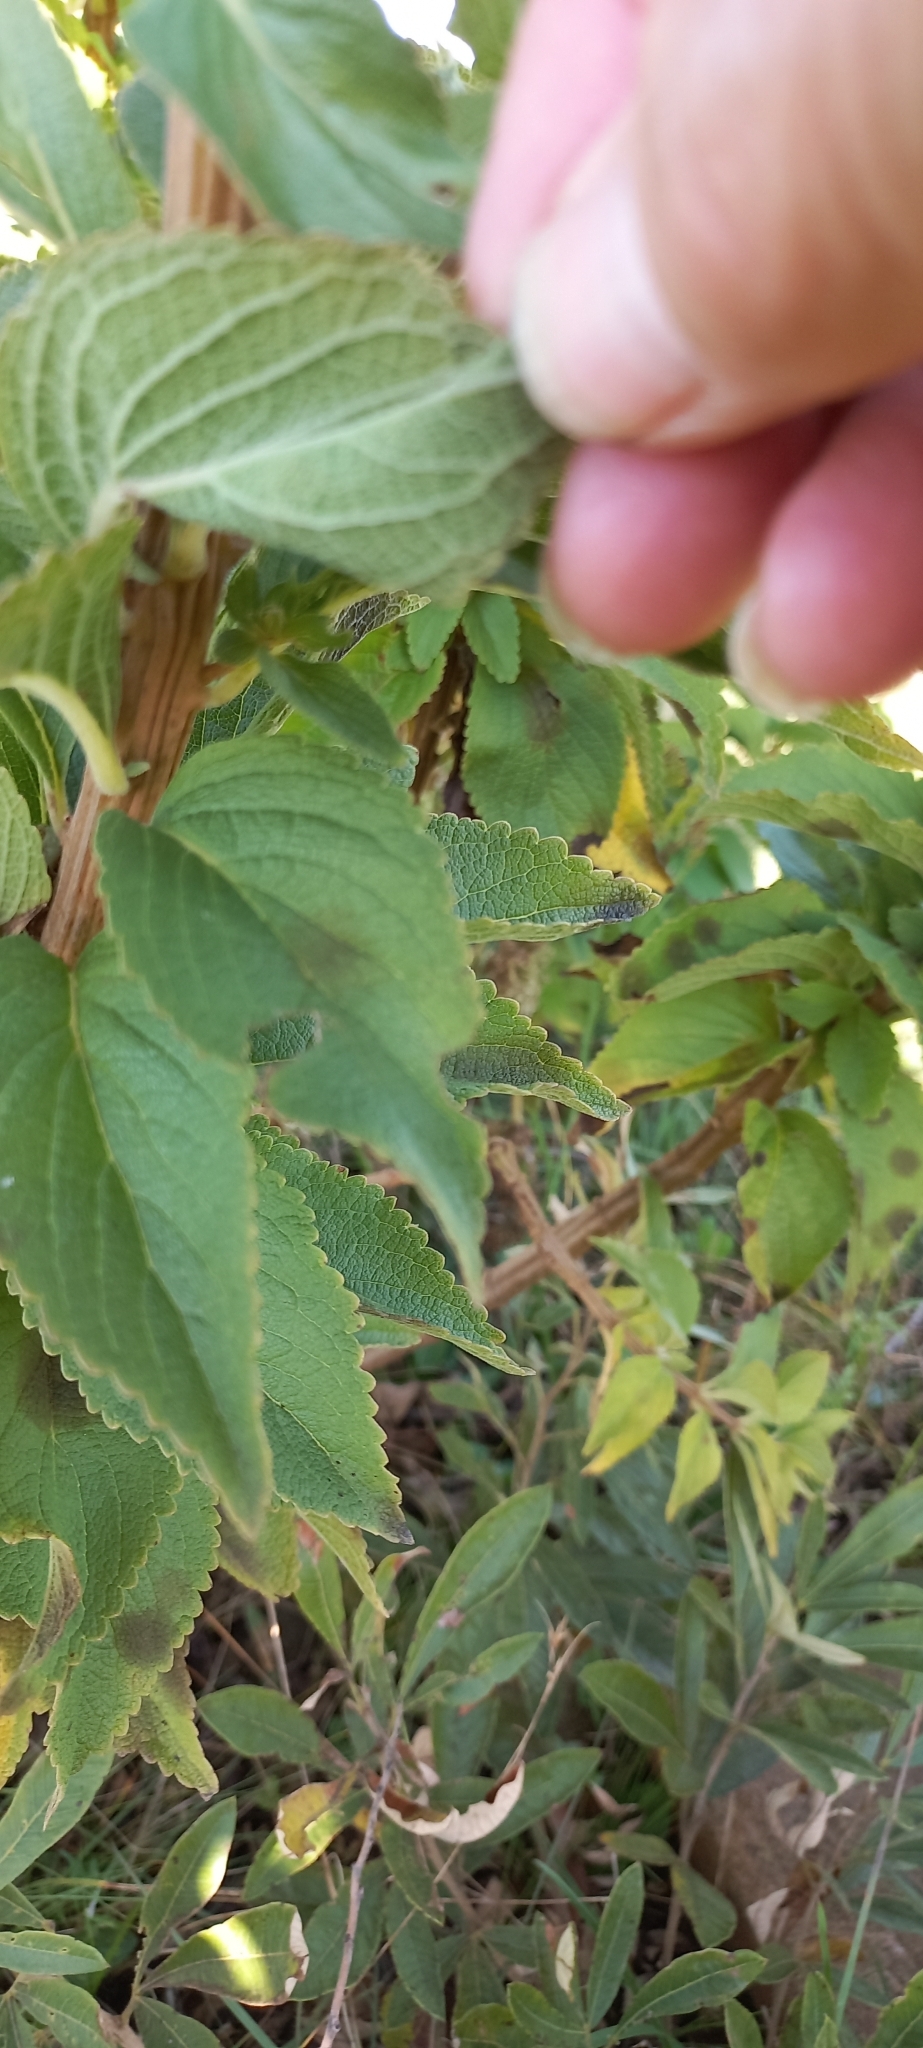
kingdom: Plantae
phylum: Tracheophyta
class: Magnoliopsida
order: Lamiales
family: Lamiaceae
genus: Coleus
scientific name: Coleus calycinus
